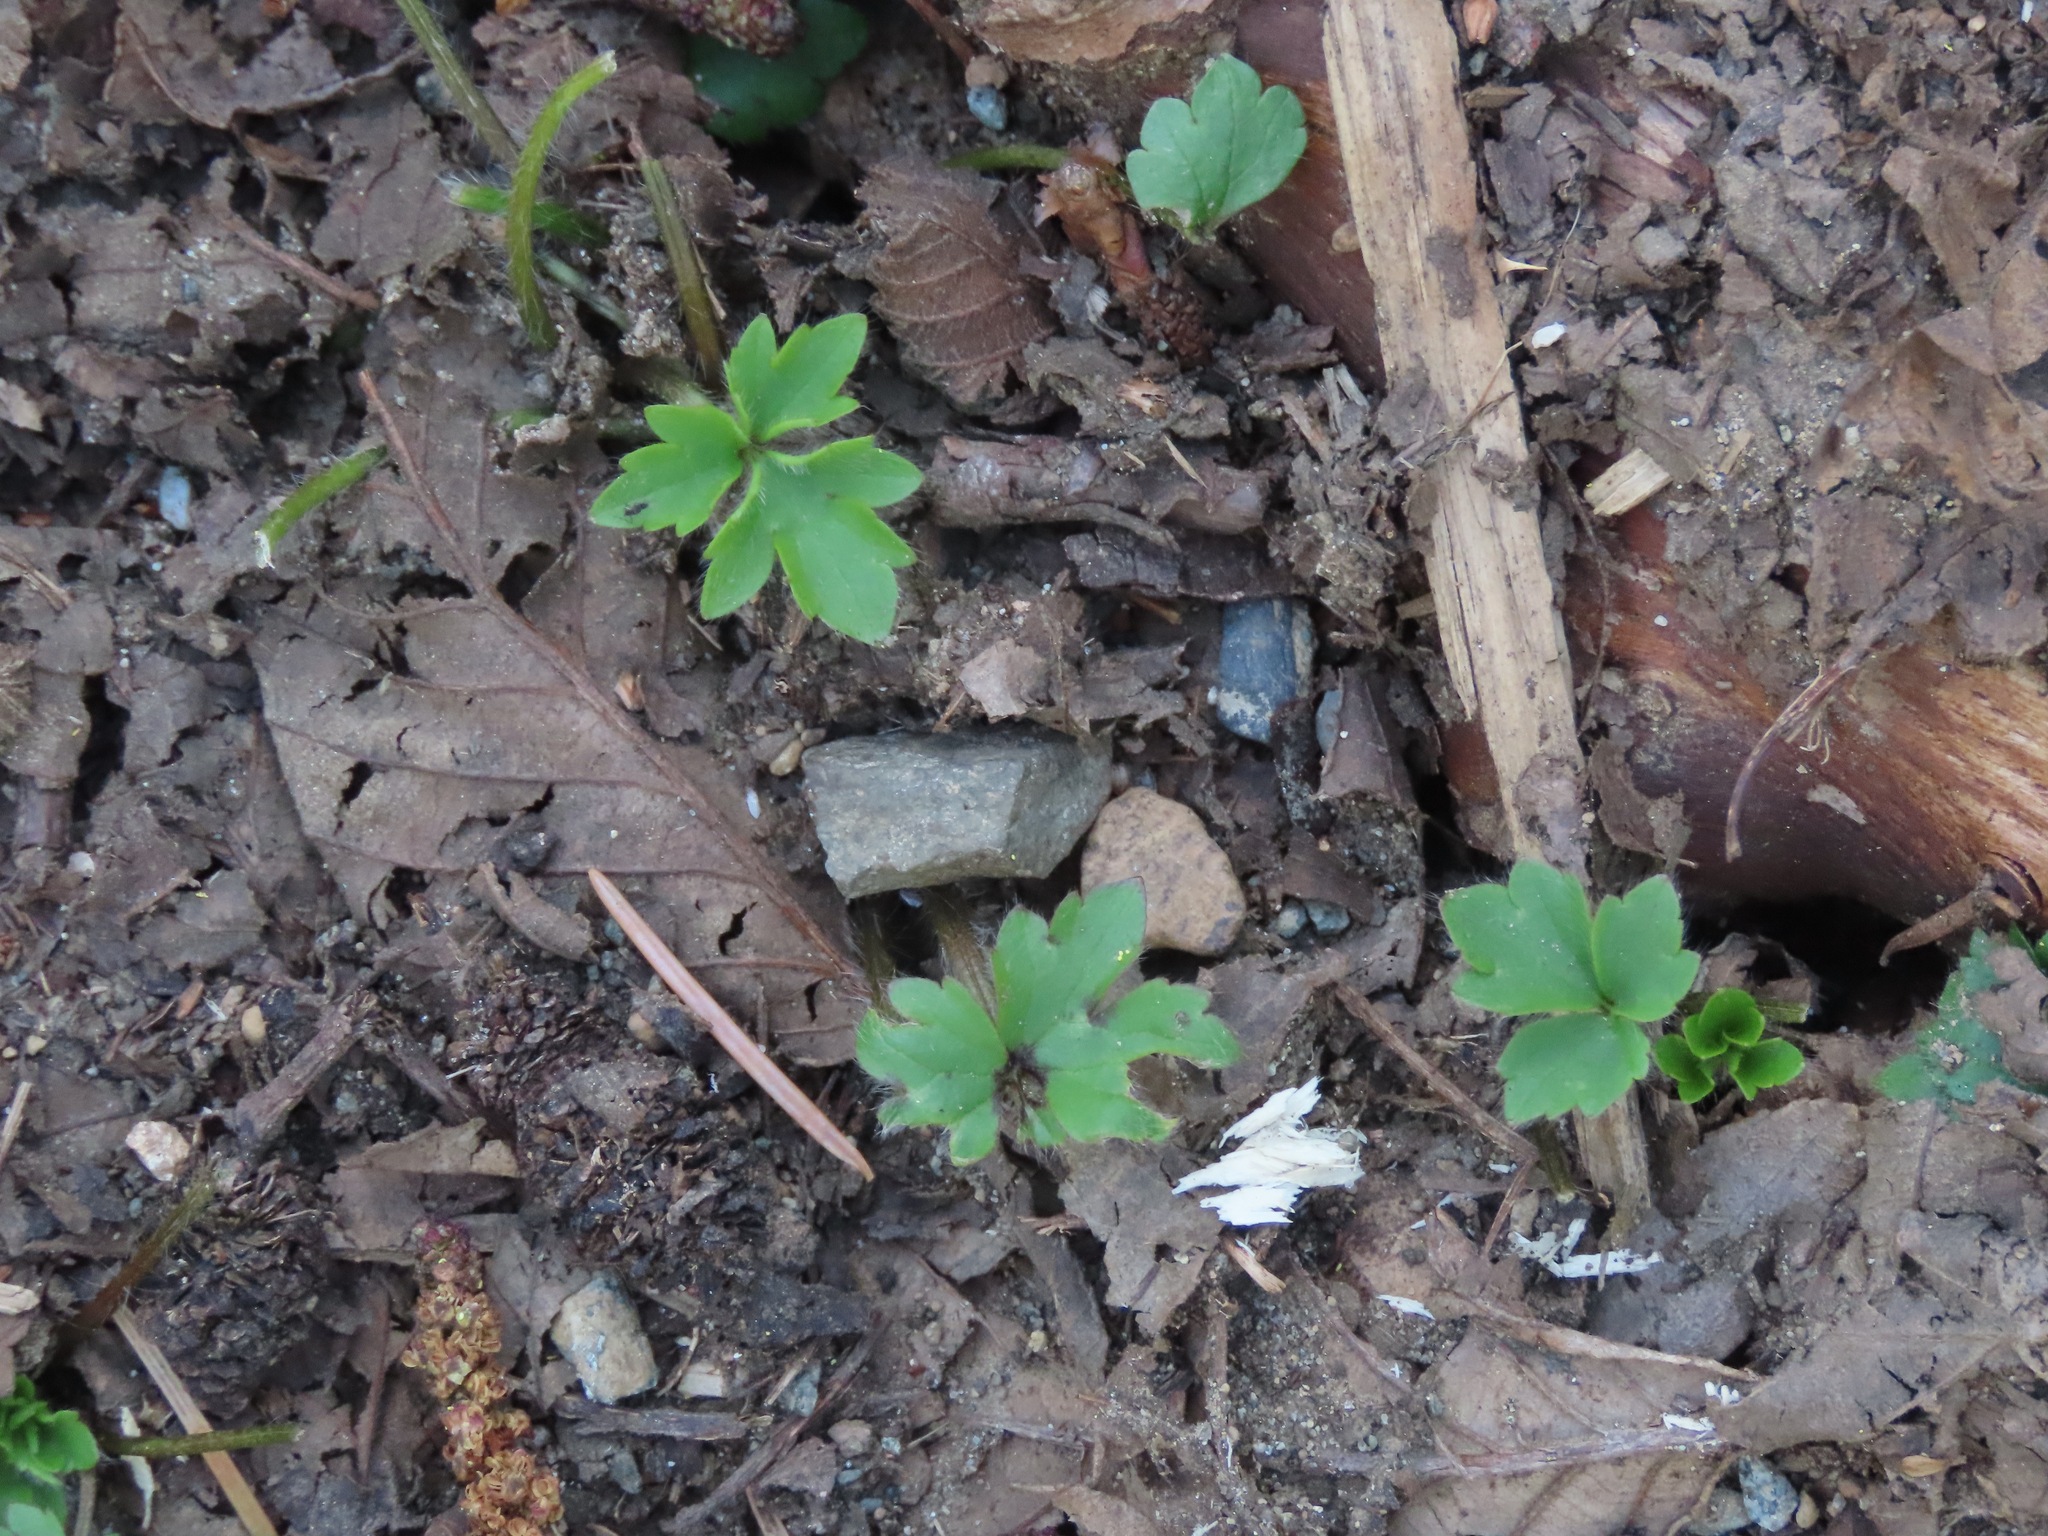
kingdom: Plantae
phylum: Tracheophyta
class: Magnoliopsida
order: Ranunculales
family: Ranunculaceae
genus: Ranunculus
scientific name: Ranunculus repens
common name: Creeping buttercup
